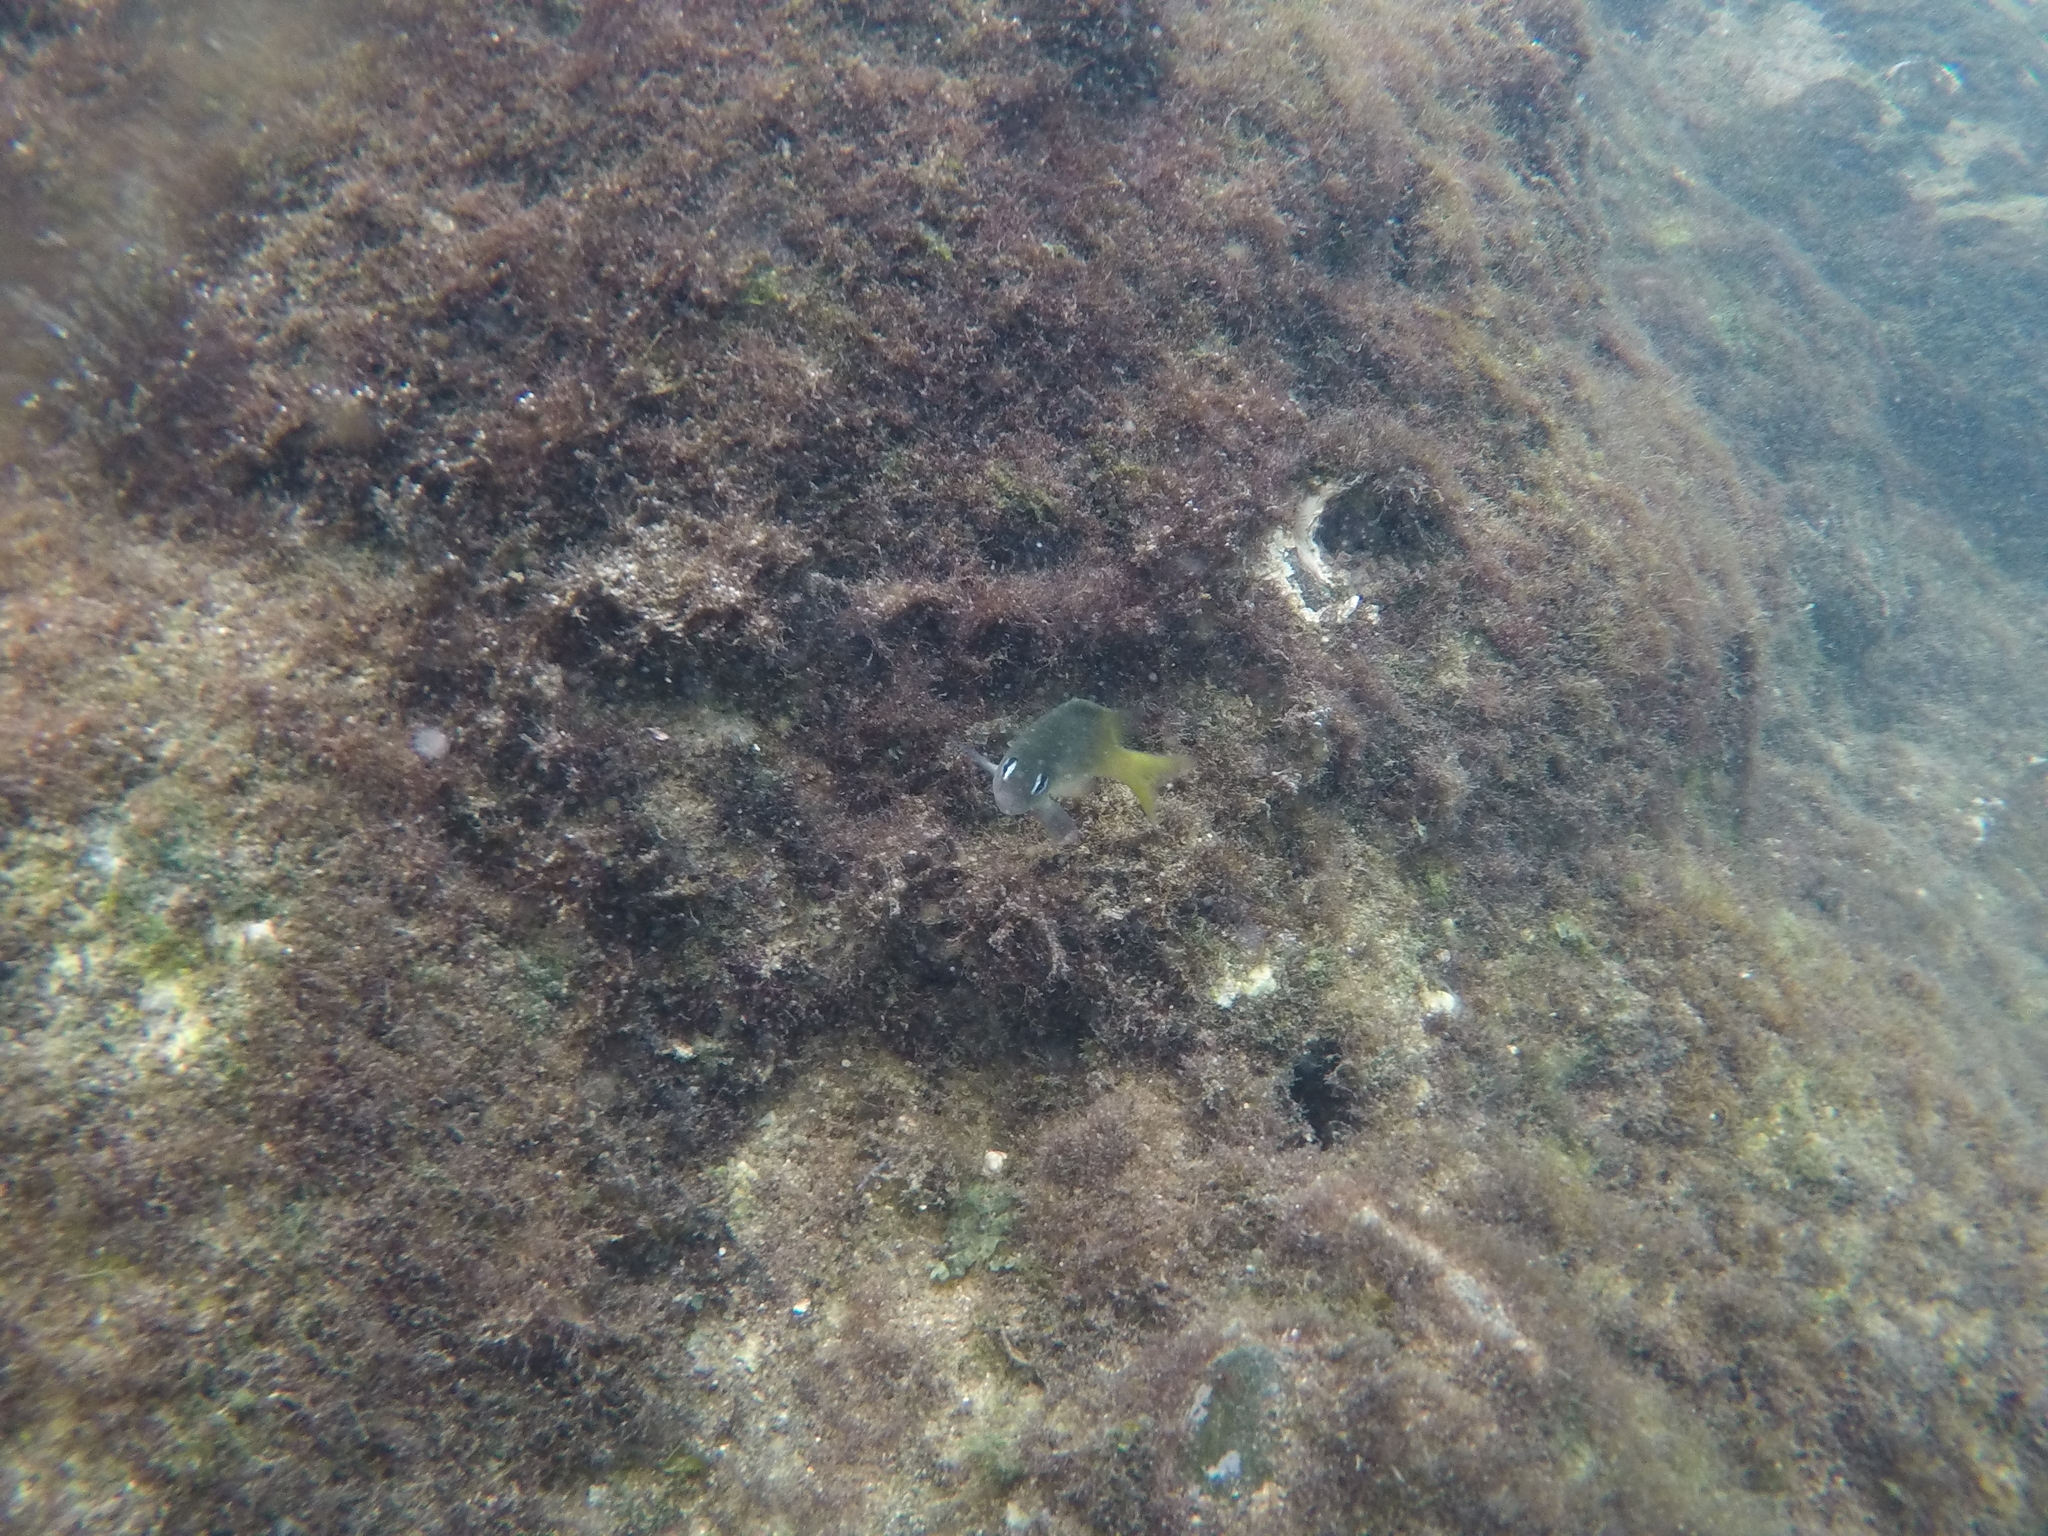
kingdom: Animalia
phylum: Chordata
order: Perciformes
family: Pomacentridae
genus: Plectroglyphidodon
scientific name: Plectroglyphidodon imparipennis
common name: Brighteye damsel
